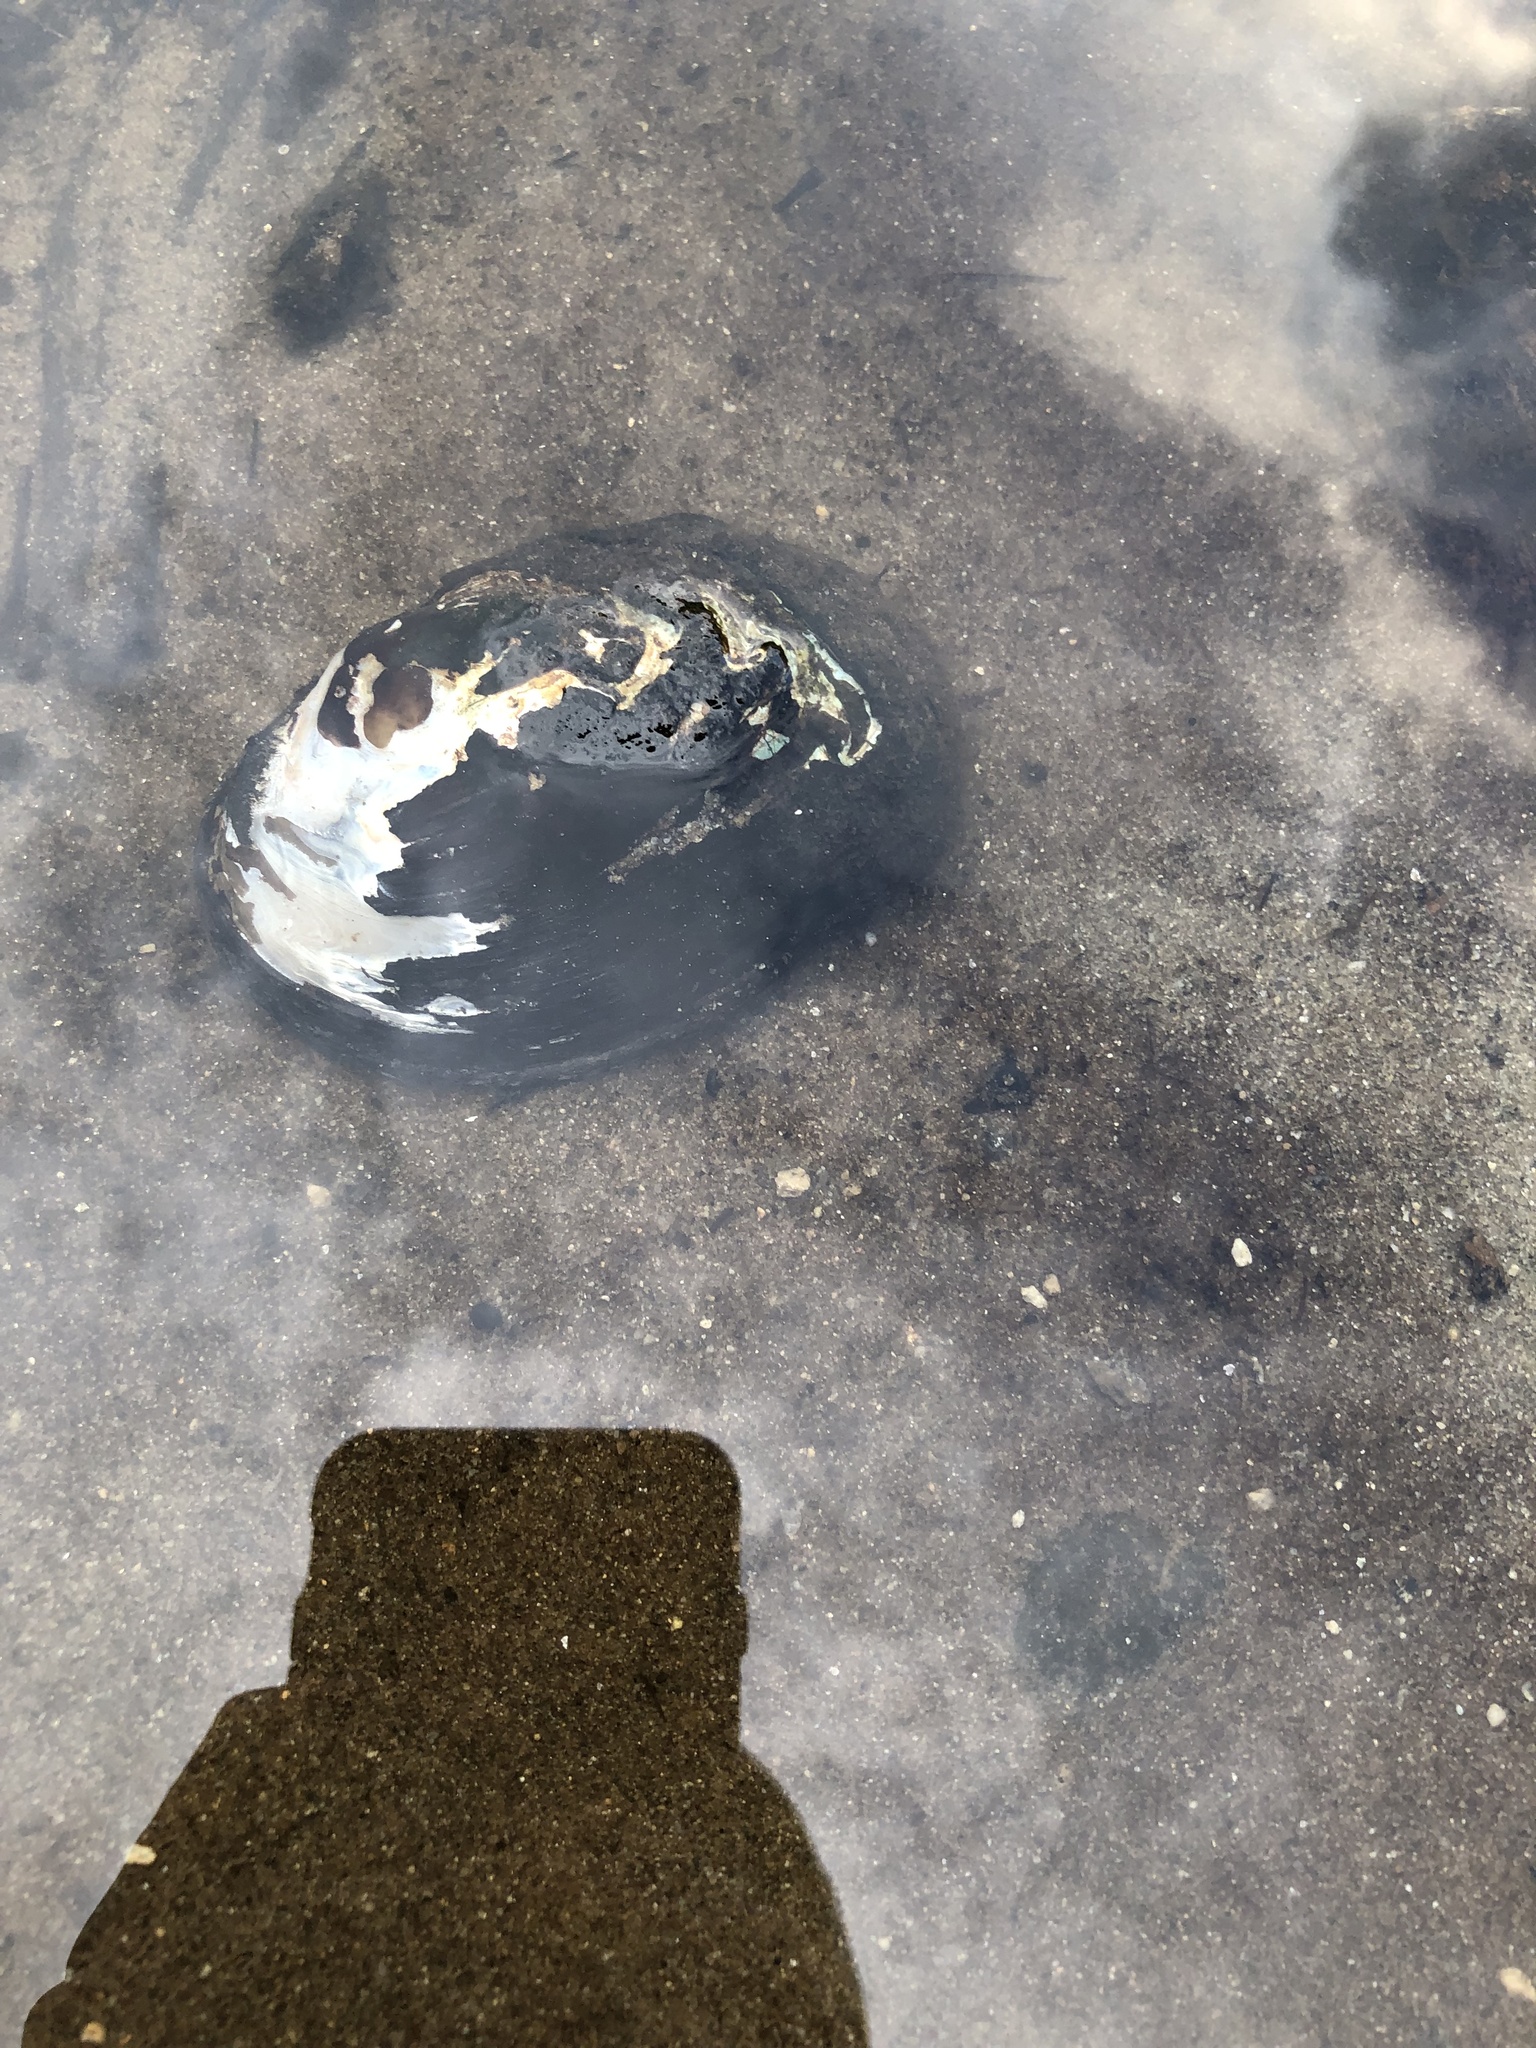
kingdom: Animalia
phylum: Mollusca
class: Bivalvia
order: Unionida
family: Unionidae
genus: Elliptio
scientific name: Elliptio complanata
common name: Eastern elliptio
